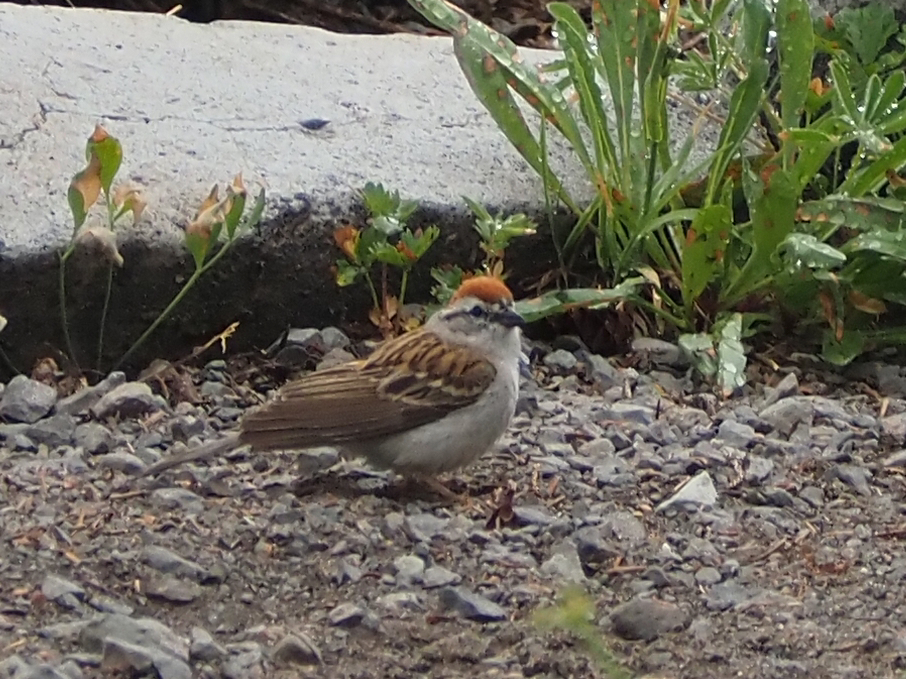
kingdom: Animalia
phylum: Chordata
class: Aves
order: Passeriformes
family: Passerellidae
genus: Spizella
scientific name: Spizella passerina
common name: Chipping sparrow
